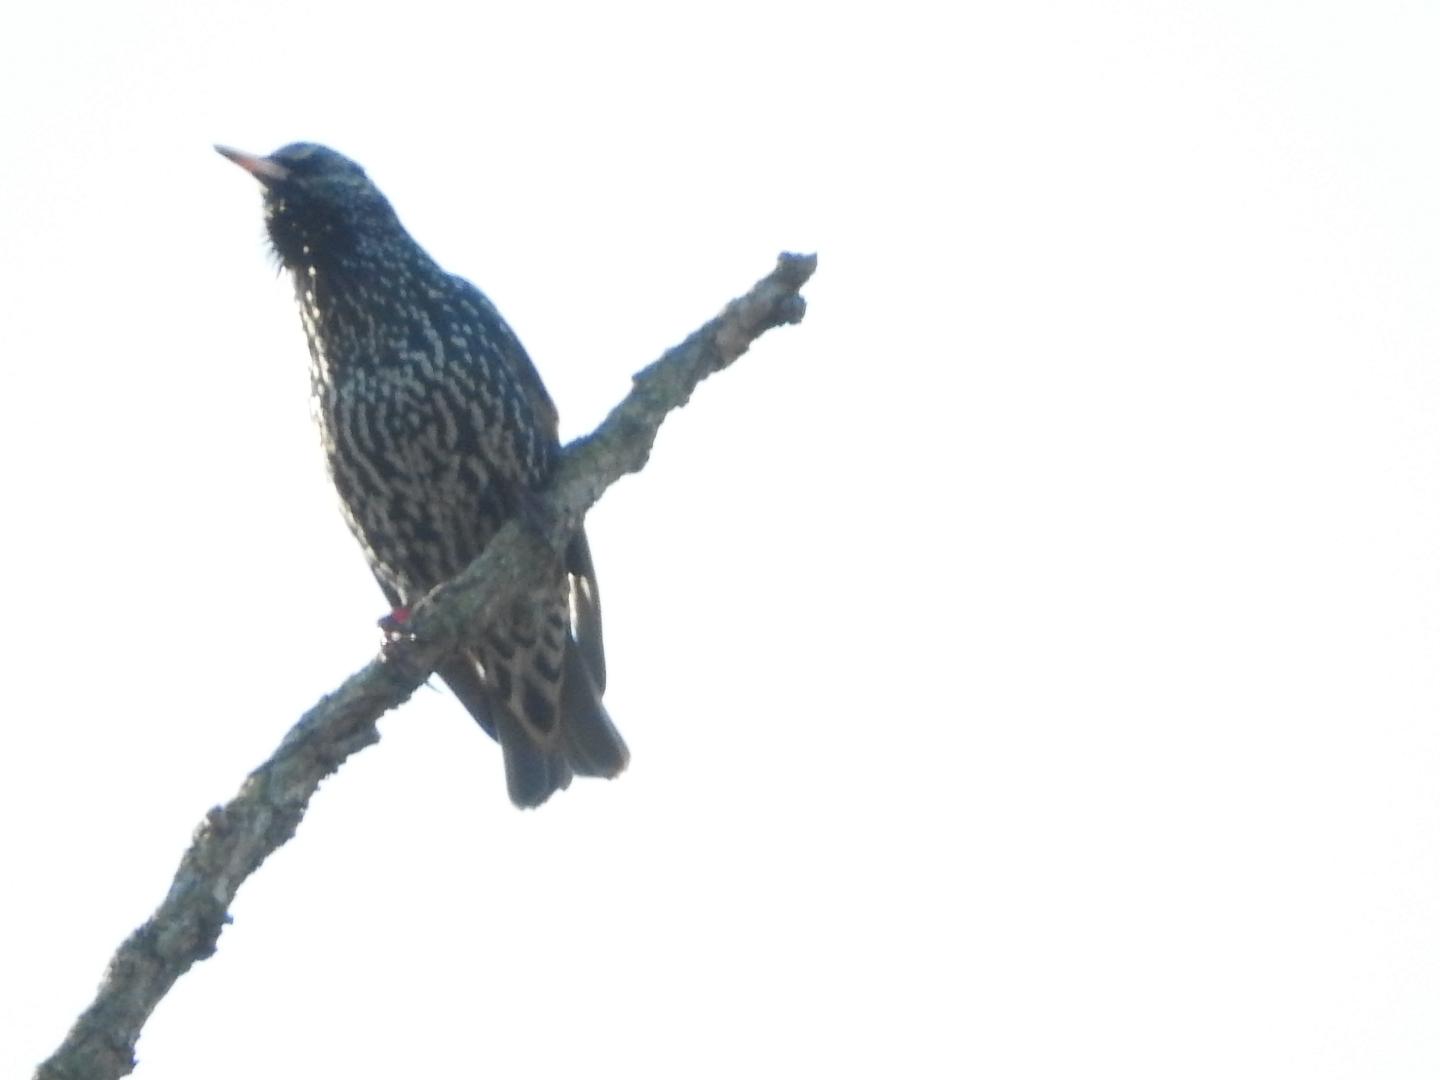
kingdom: Animalia
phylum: Chordata
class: Aves
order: Passeriformes
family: Sturnidae
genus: Sturnus
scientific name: Sturnus vulgaris
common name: Common starling
